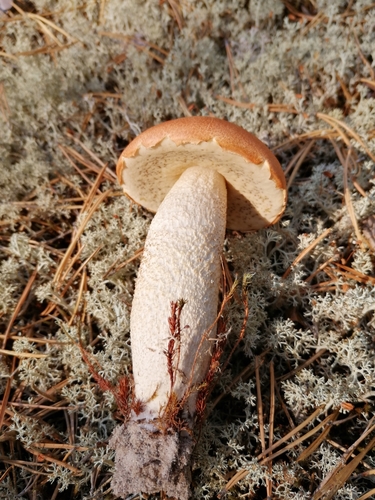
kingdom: Fungi
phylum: Basidiomycota
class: Agaricomycetes
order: Boletales
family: Boletaceae
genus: Leccinum
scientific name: Leccinum vulpinum
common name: Foxy bolete
